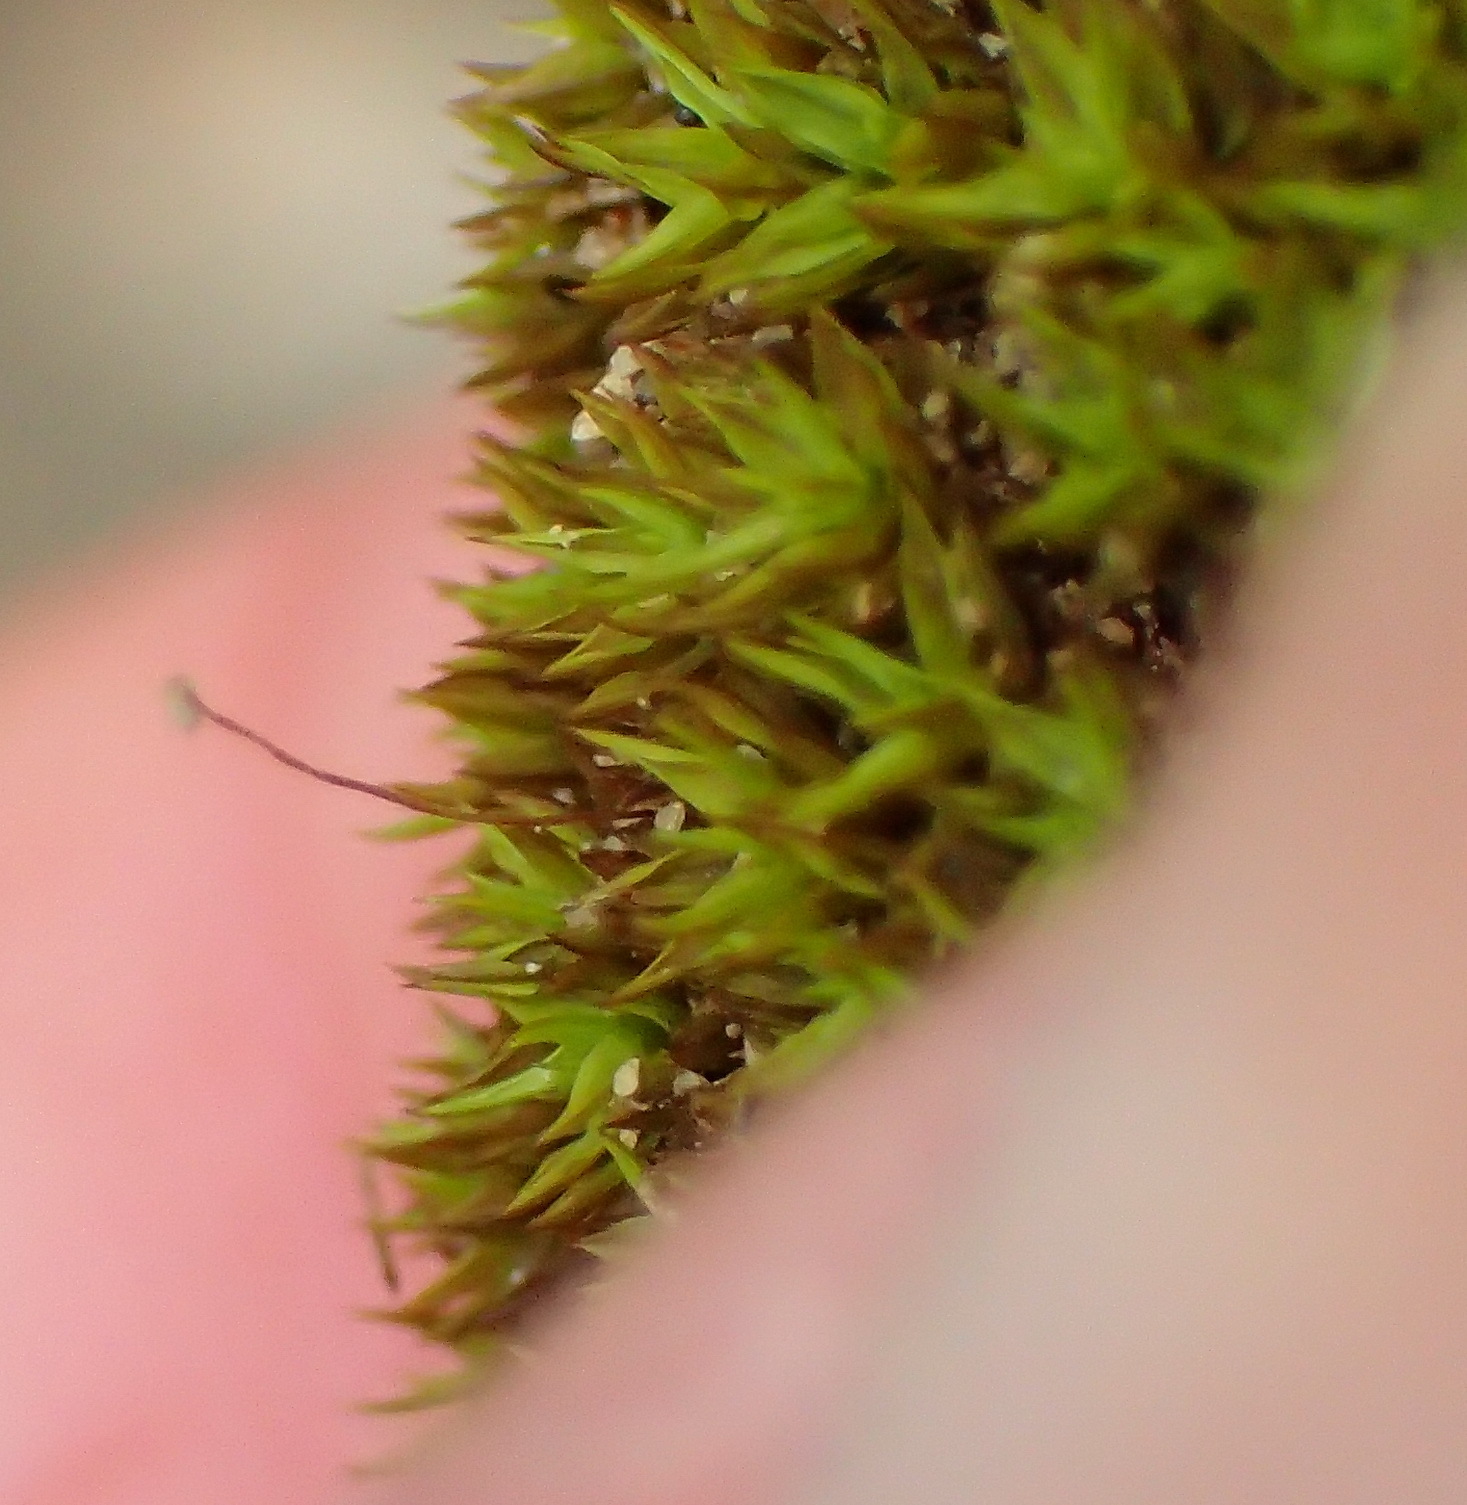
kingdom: Plantae
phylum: Bryophyta
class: Bryopsida
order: Pottiales
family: Pottiaceae
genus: Trichostomum
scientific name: Trichostomum brachydontium
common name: Variable crisp-moss
